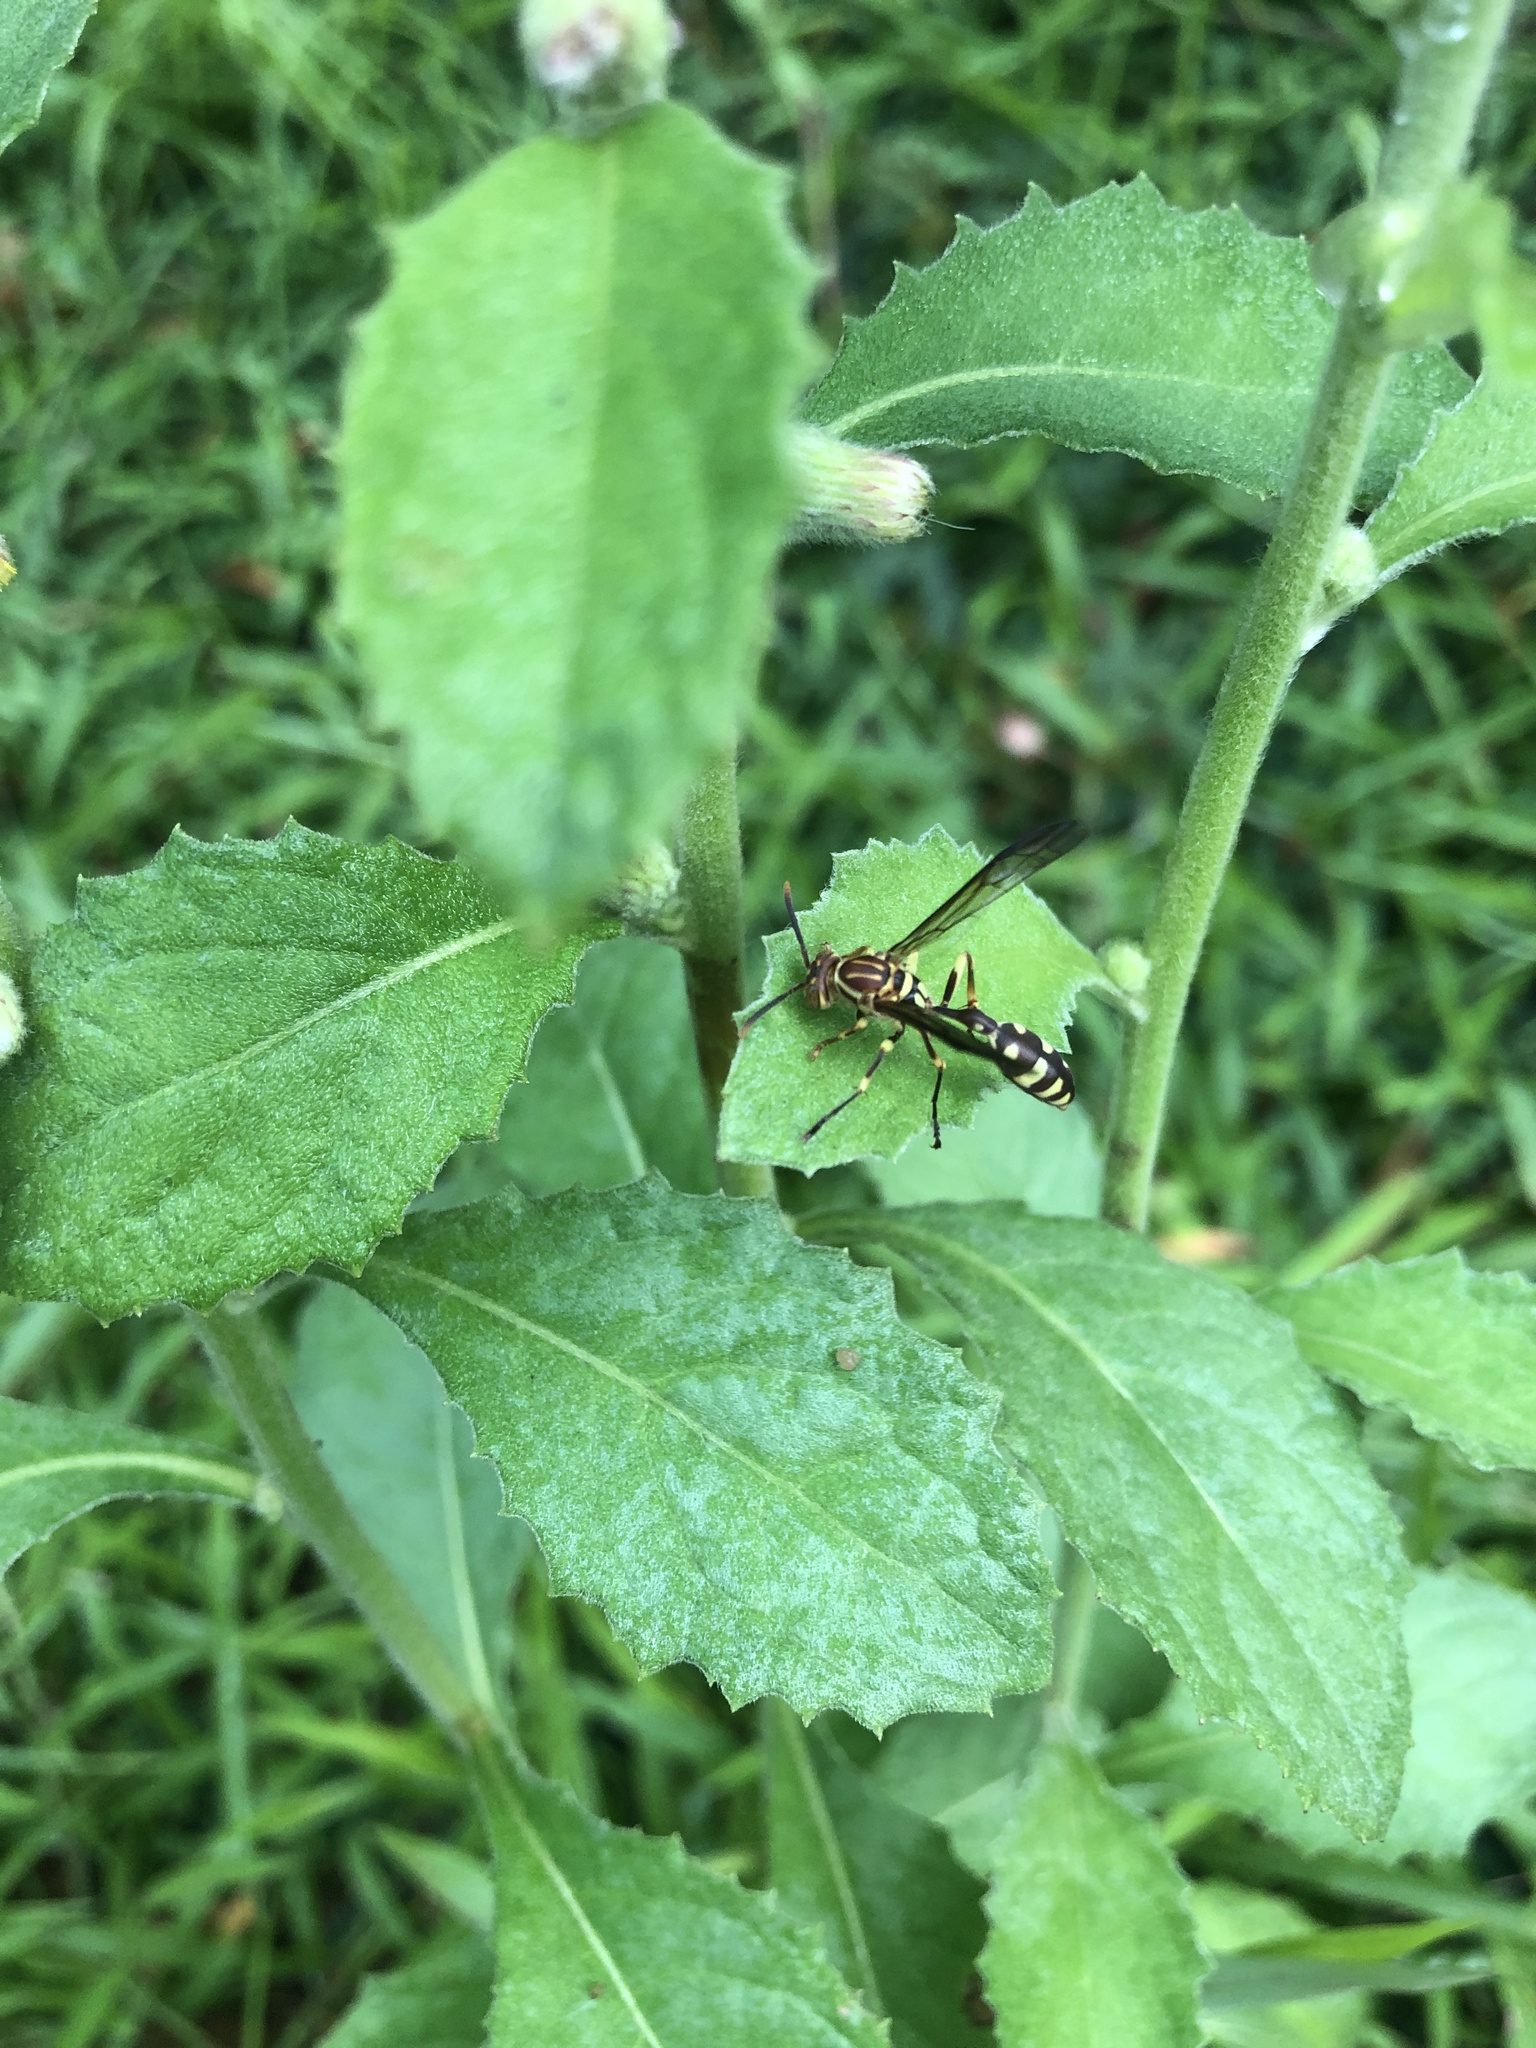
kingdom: Animalia
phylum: Arthropoda
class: Insecta
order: Hymenoptera
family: Vespidae
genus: Parapolybia
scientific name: Parapolybia varia
